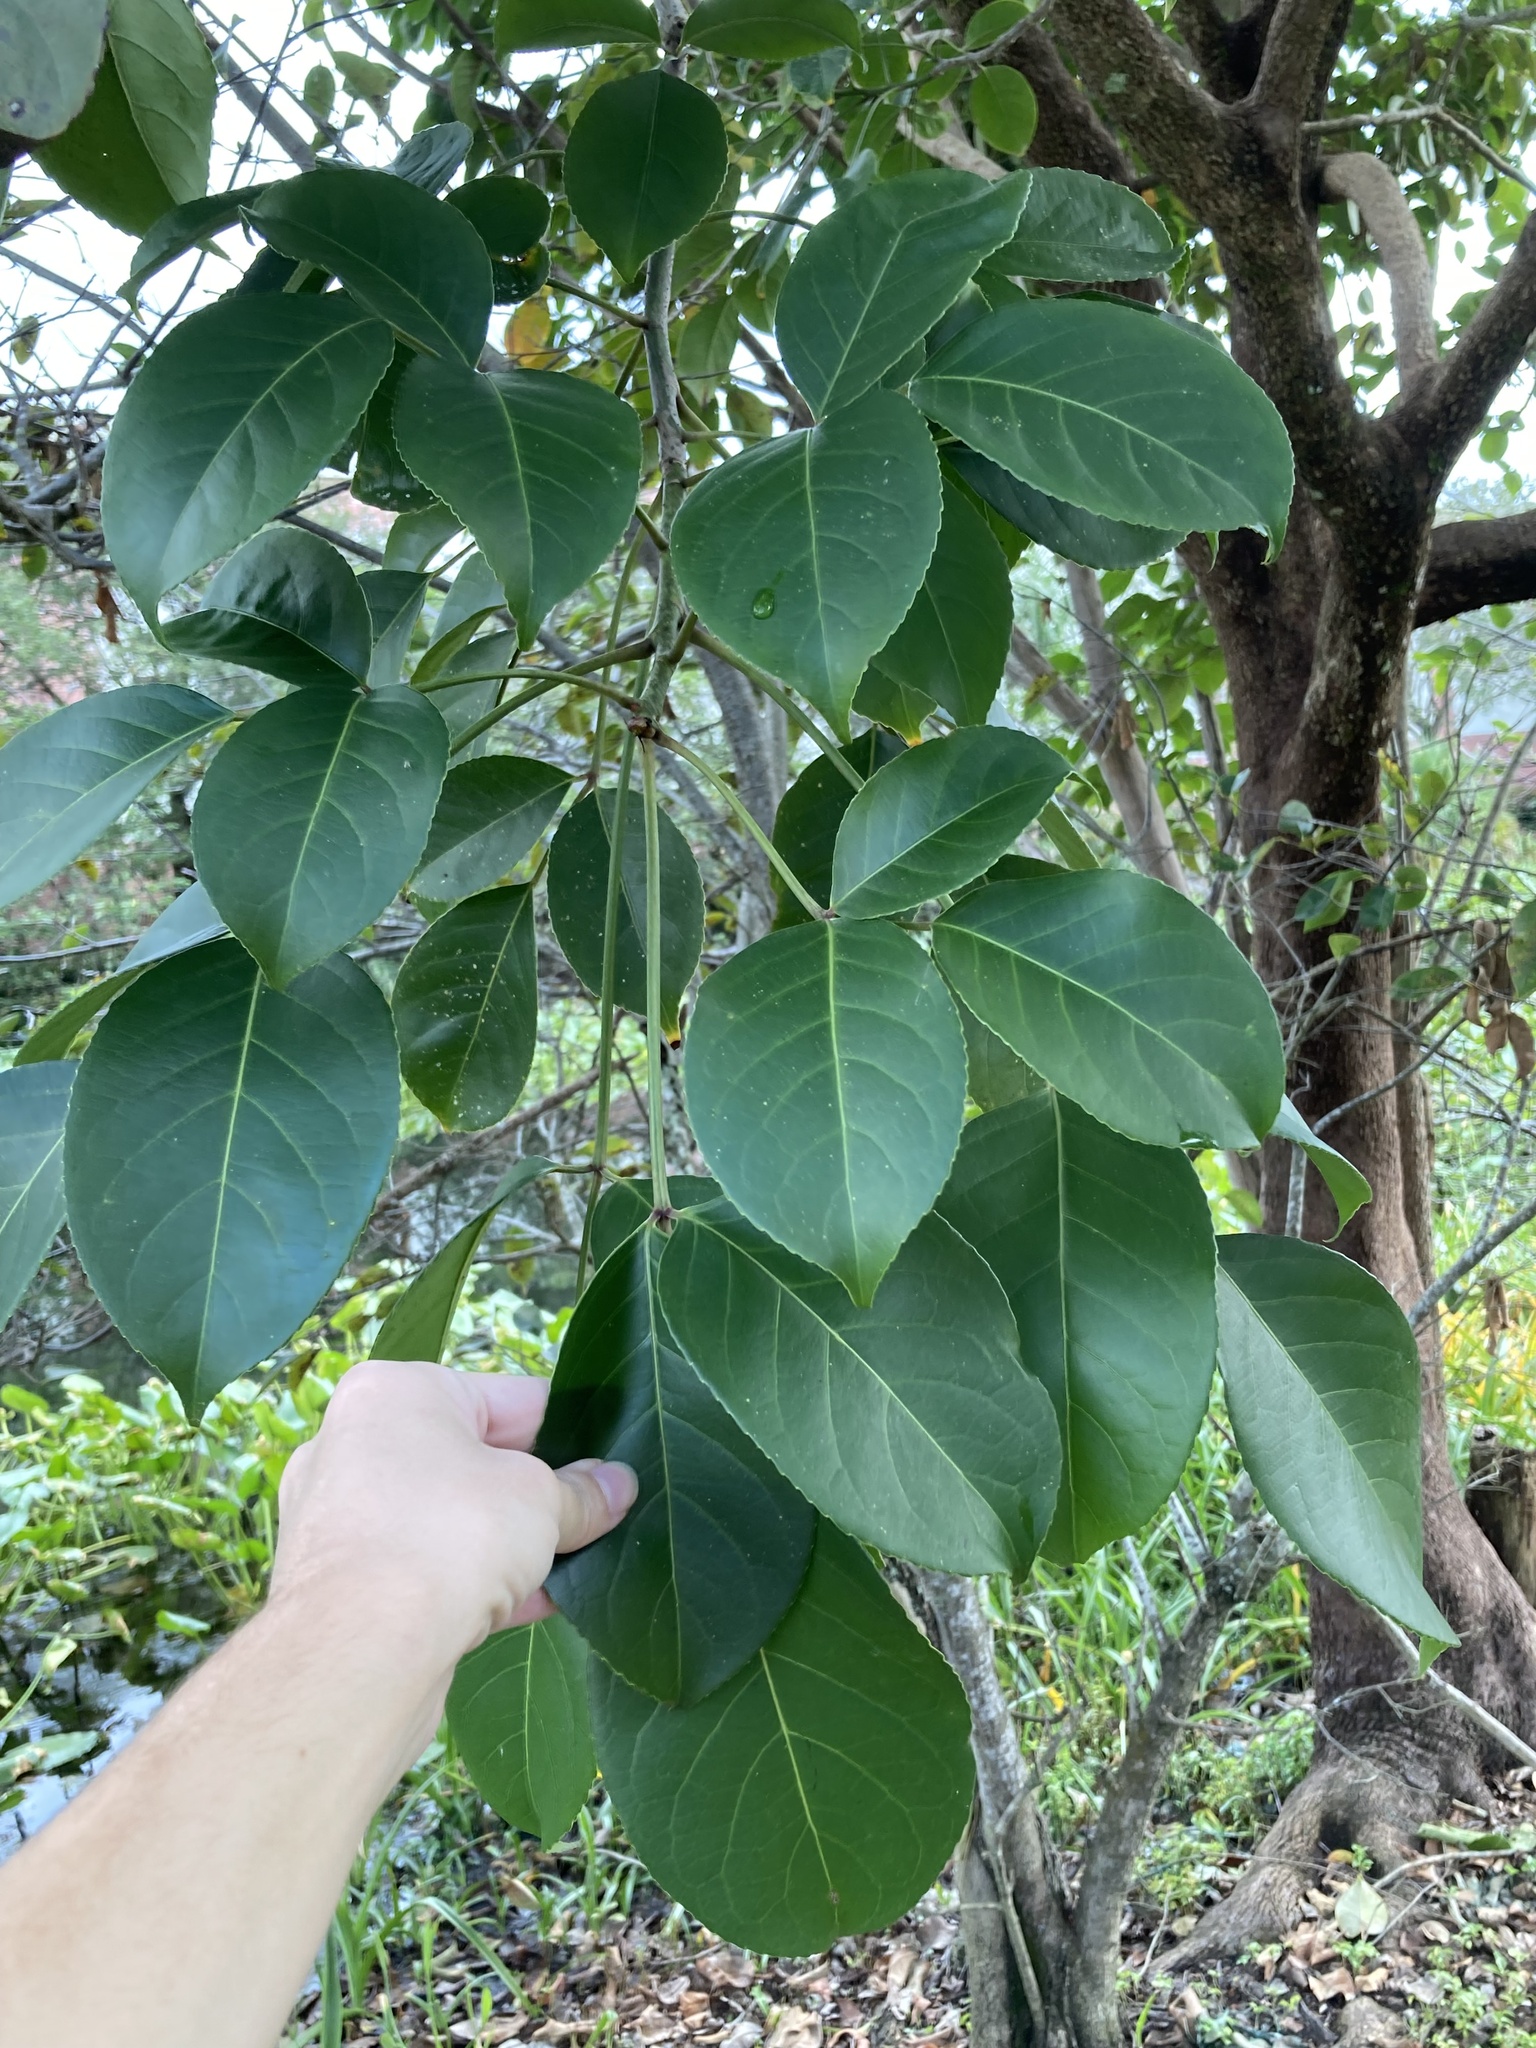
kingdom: Plantae
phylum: Tracheophyta
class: Magnoliopsida
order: Malpighiales
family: Phyllanthaceae
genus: Bischofia
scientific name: Bischofia javanica
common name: Javanese bishopwood
